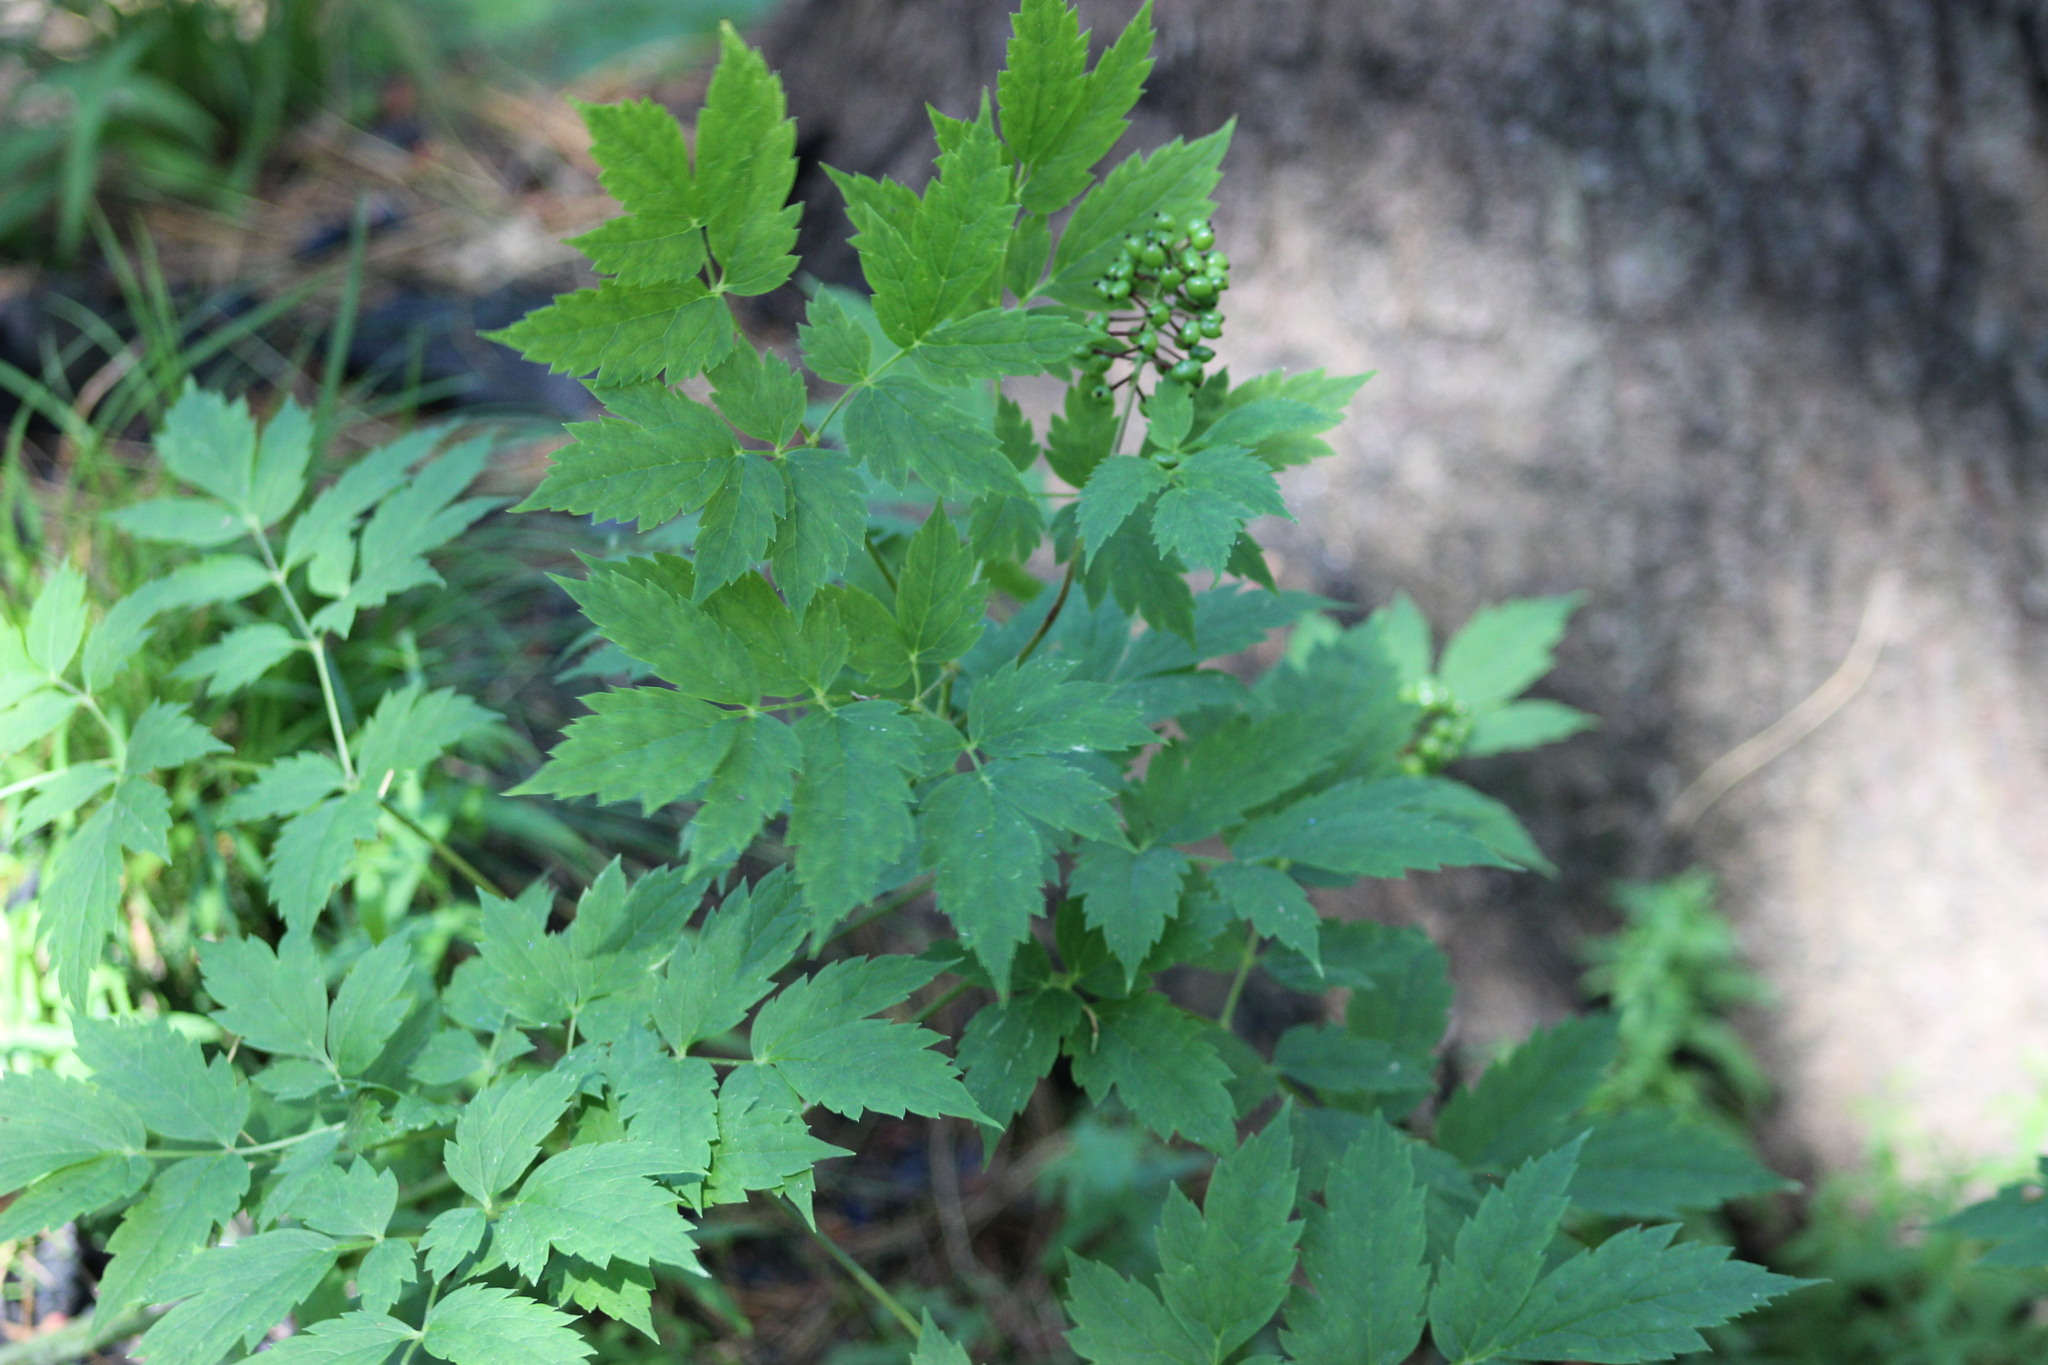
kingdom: Plantae
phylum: Tracheophyta
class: Magnoliopsida
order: Ranunculales
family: Ranunculaceae
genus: Actaea
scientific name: Actaea erythrocarpa
